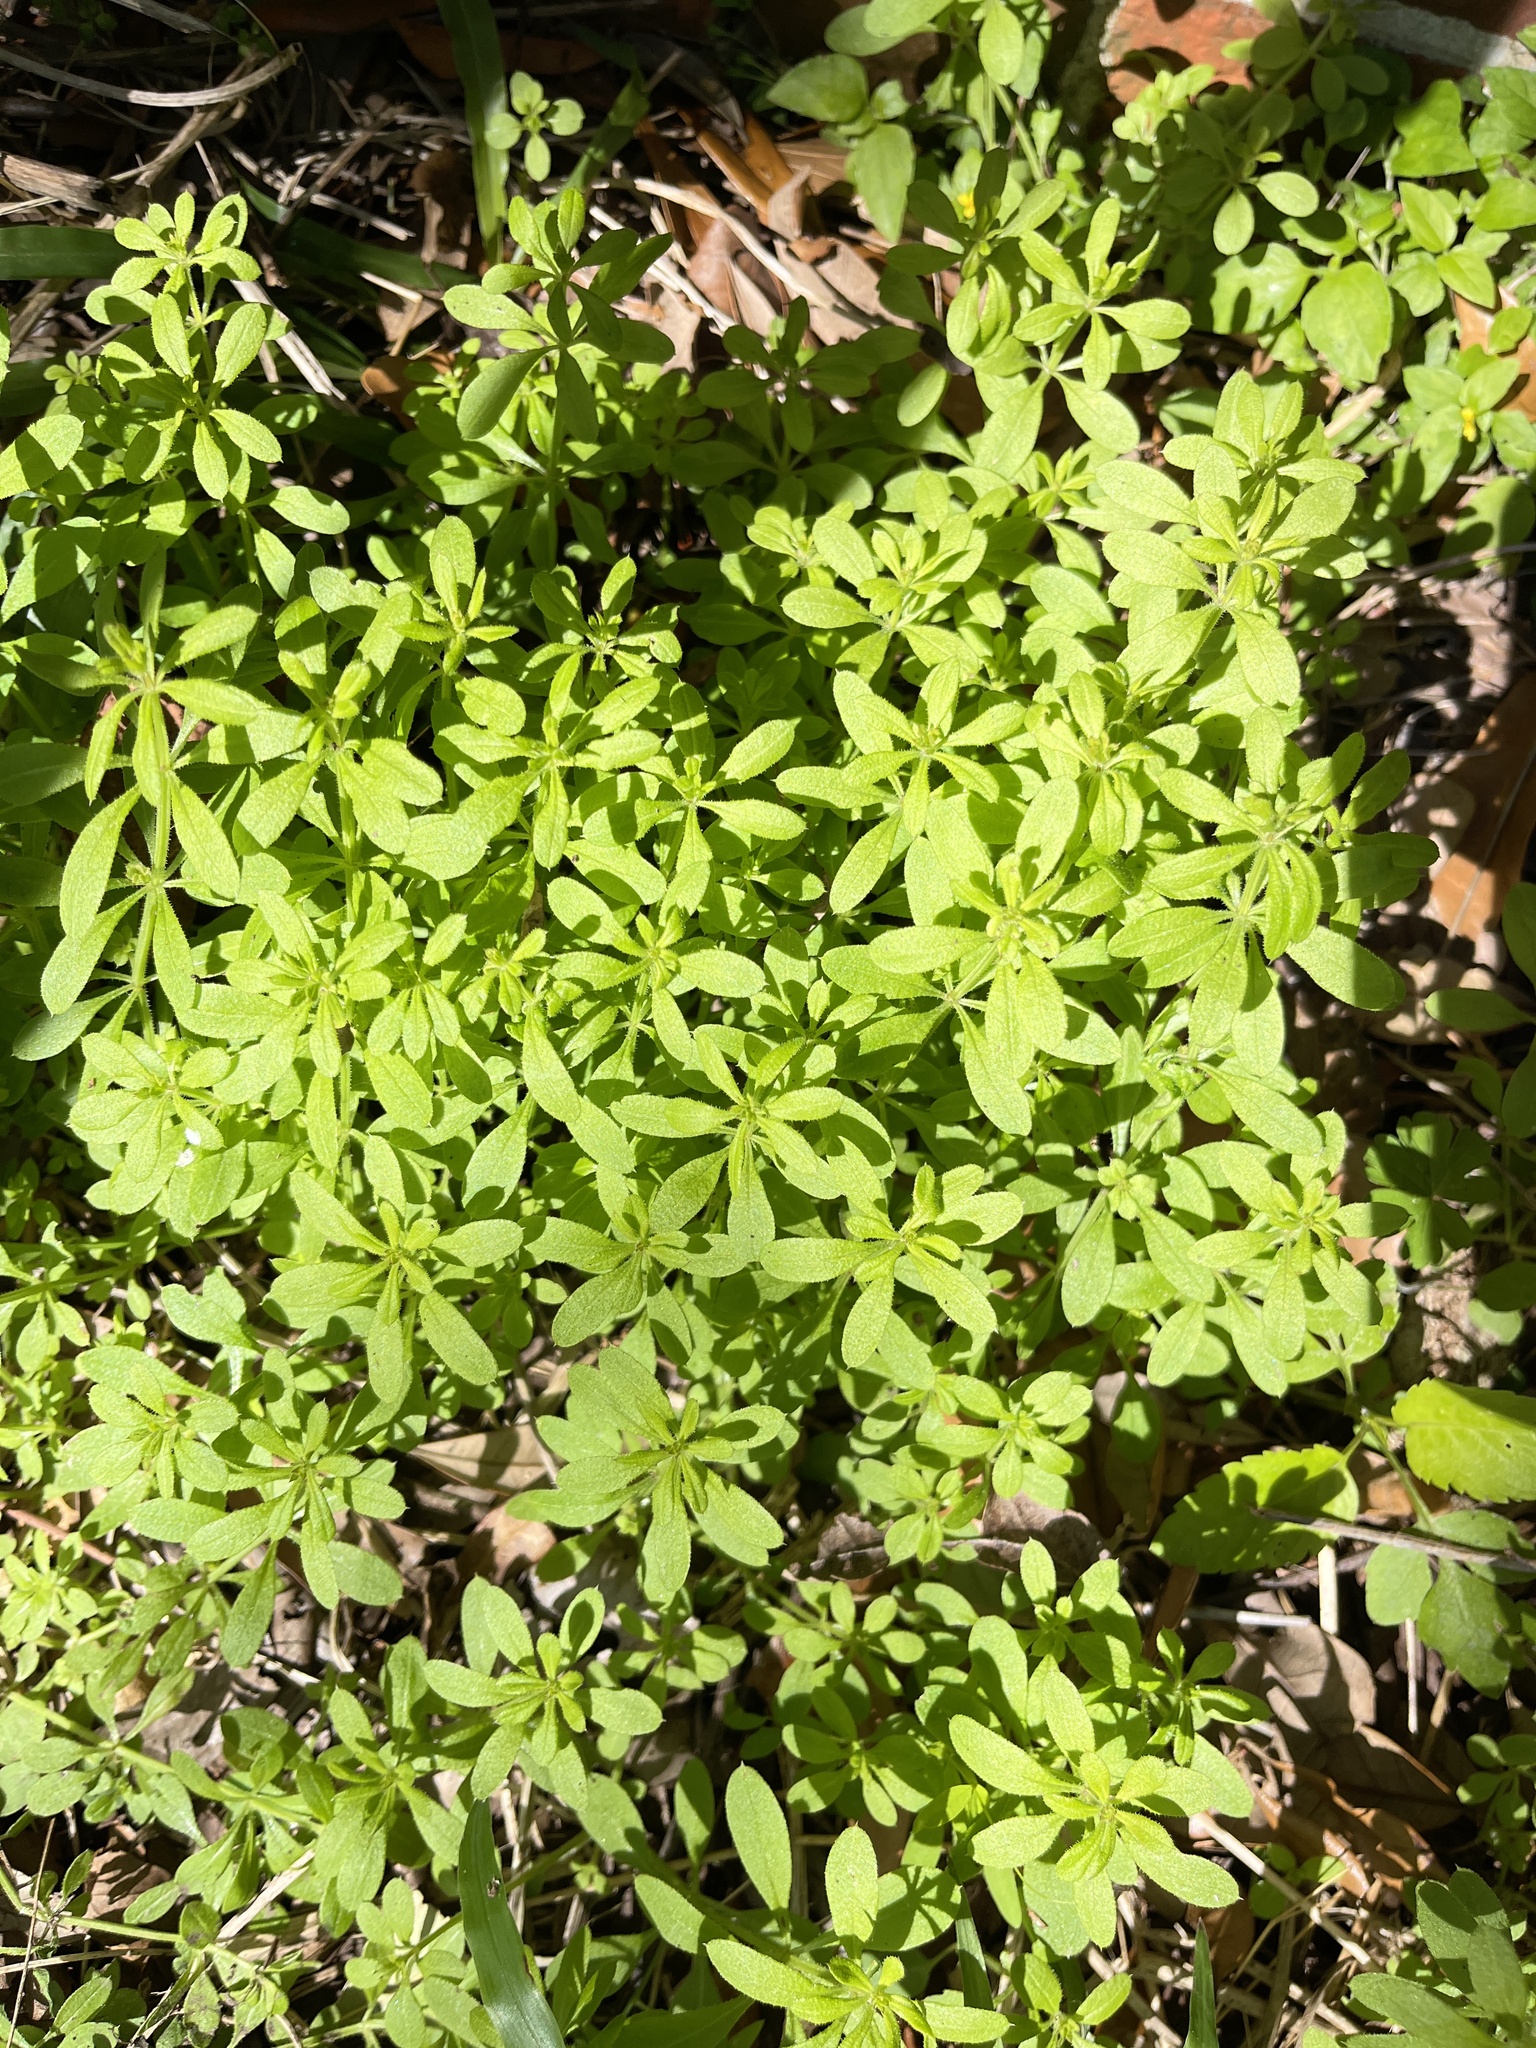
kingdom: Plantae
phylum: Tracheophyta
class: Magnoliopsida
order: Gentianales
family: Rubiaceae
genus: Galium
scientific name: Galium aparine
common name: Cleavers
